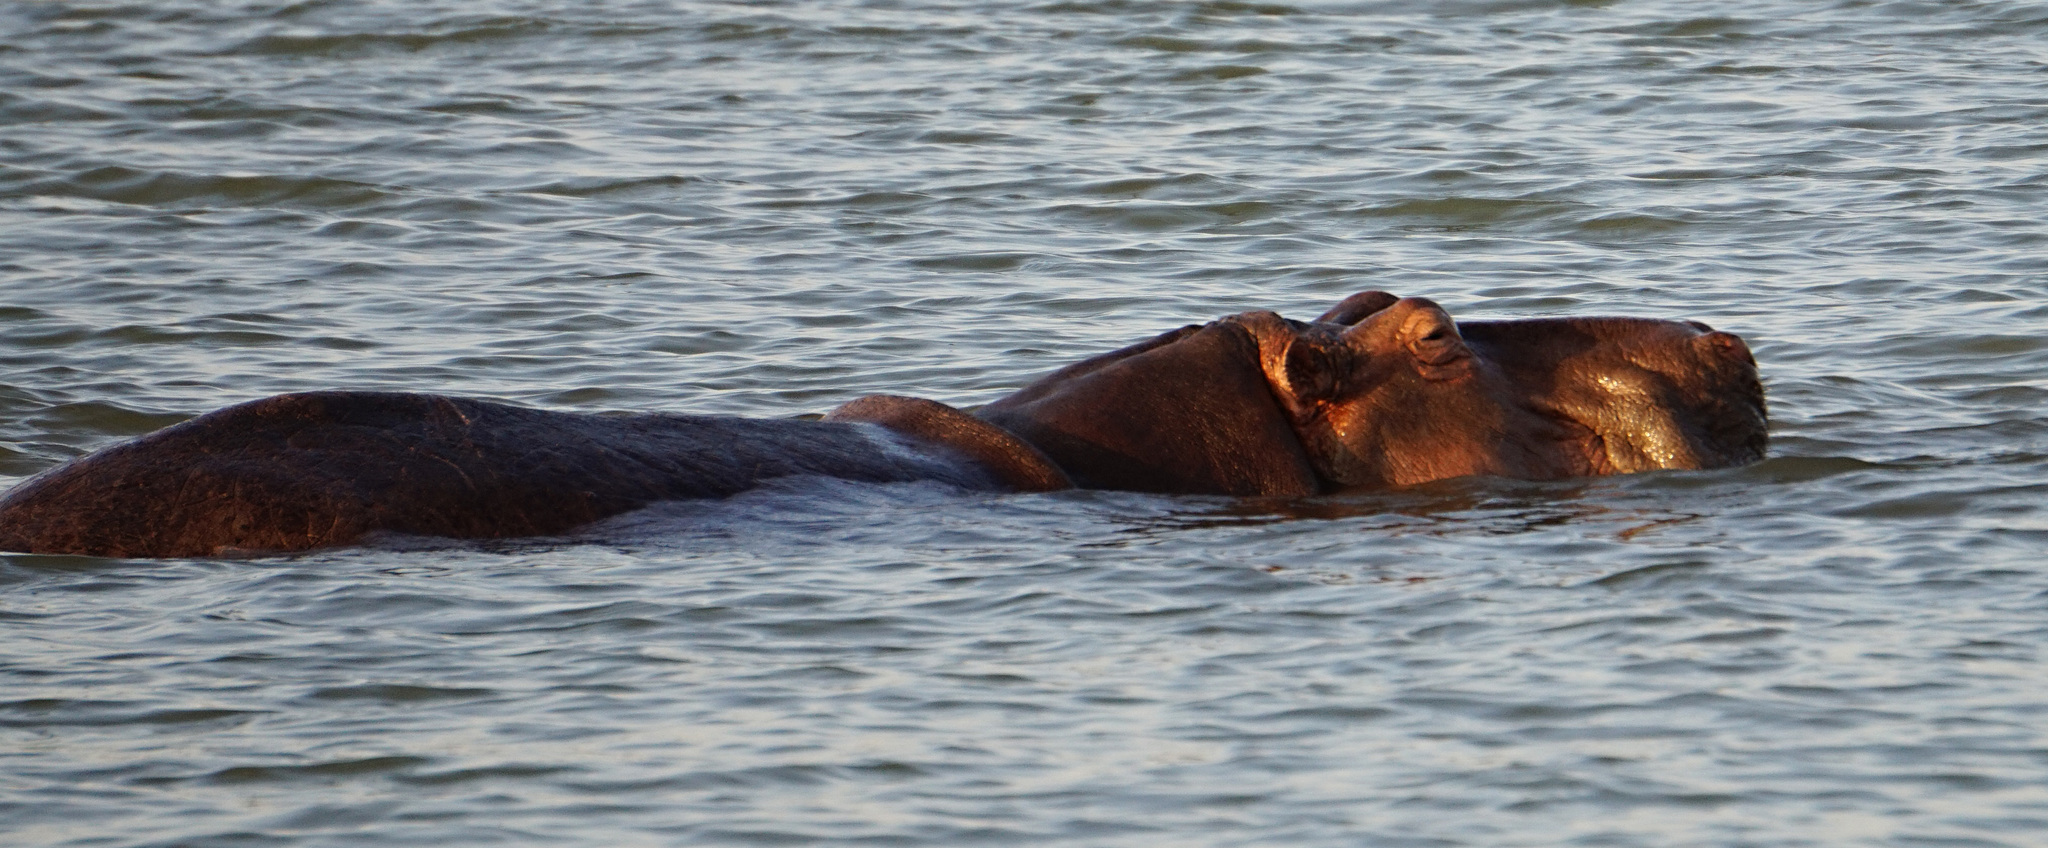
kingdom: Animalia
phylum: Chordata
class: Mammalia
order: Artiodactyla
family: Hippopotamidae
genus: Hippopotamus
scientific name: Hippopotamus amphibius
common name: Common hippopotamus
